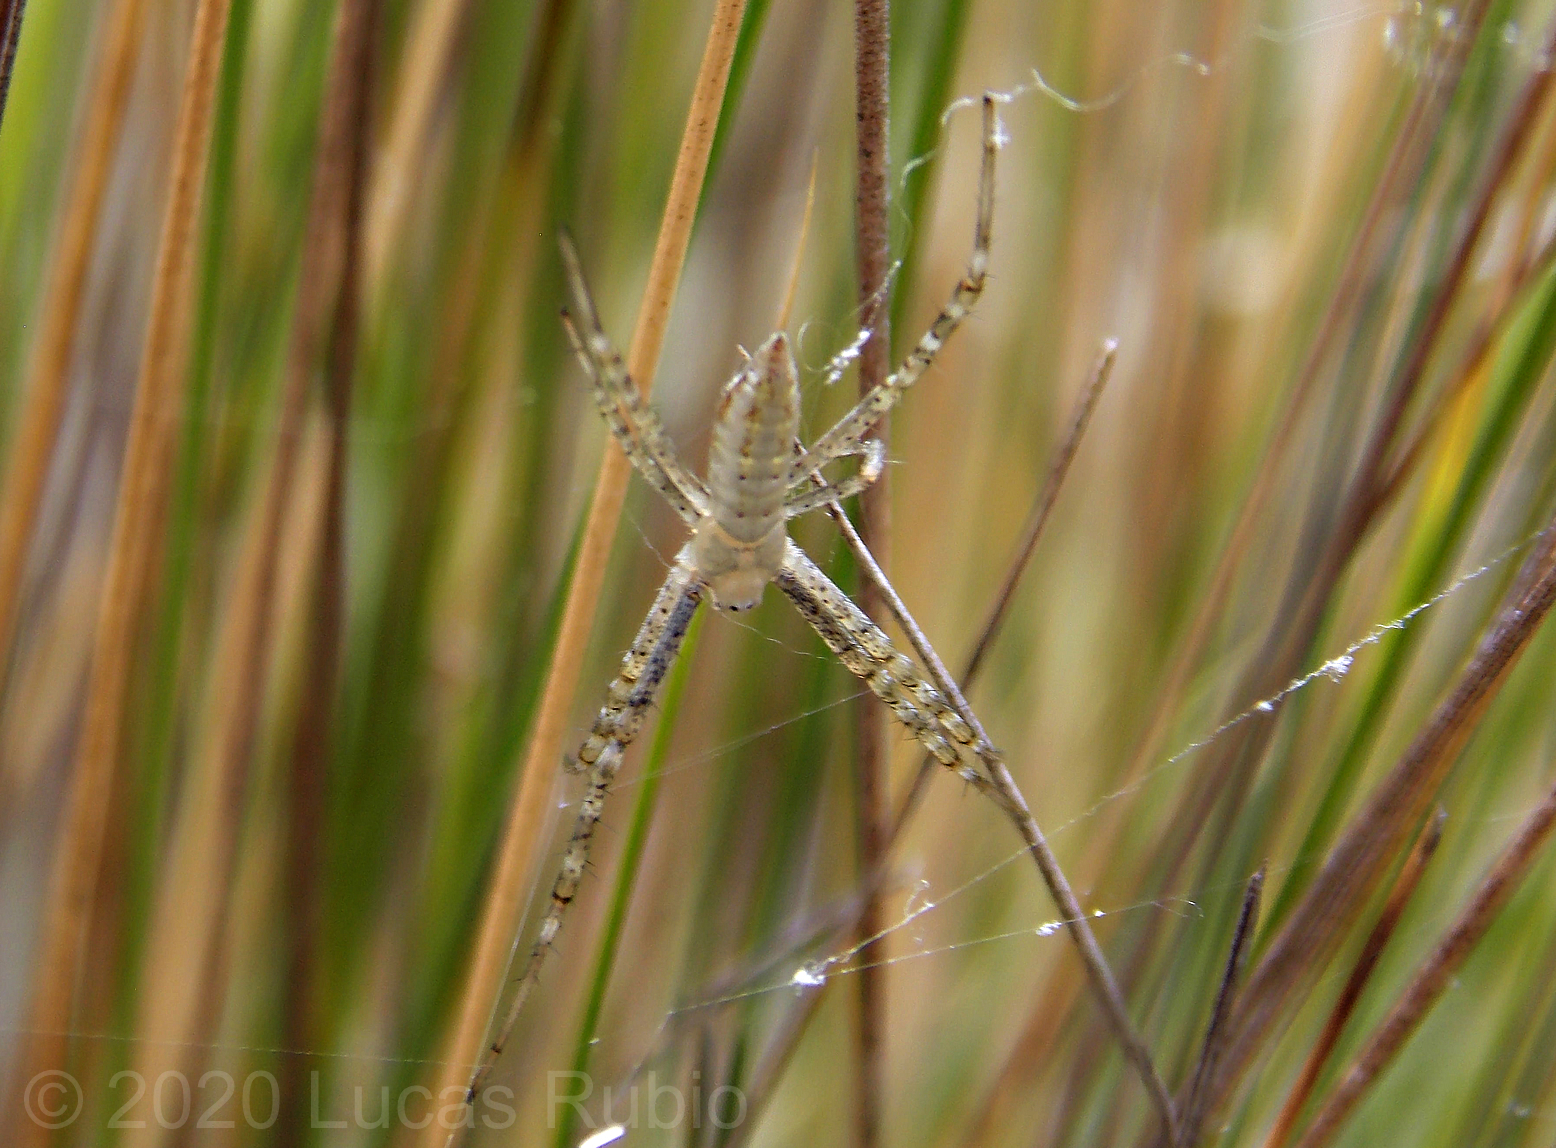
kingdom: Animalia
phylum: Arthropoda
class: Arachnida
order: Araneae
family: Araneidae
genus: Argiope
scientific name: Argiope trifasciata
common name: Banded garden spider
